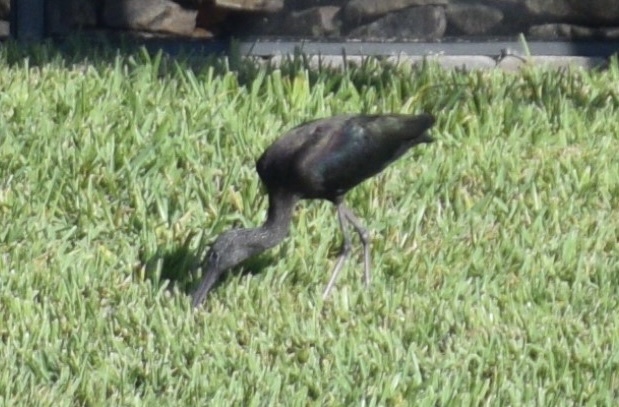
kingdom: Animalia
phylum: Chordata
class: Aves
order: Pelecaniformes
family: Threskiornithidae
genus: Plegadis
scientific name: Plegadis falcinellus
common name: Glossy ibis
